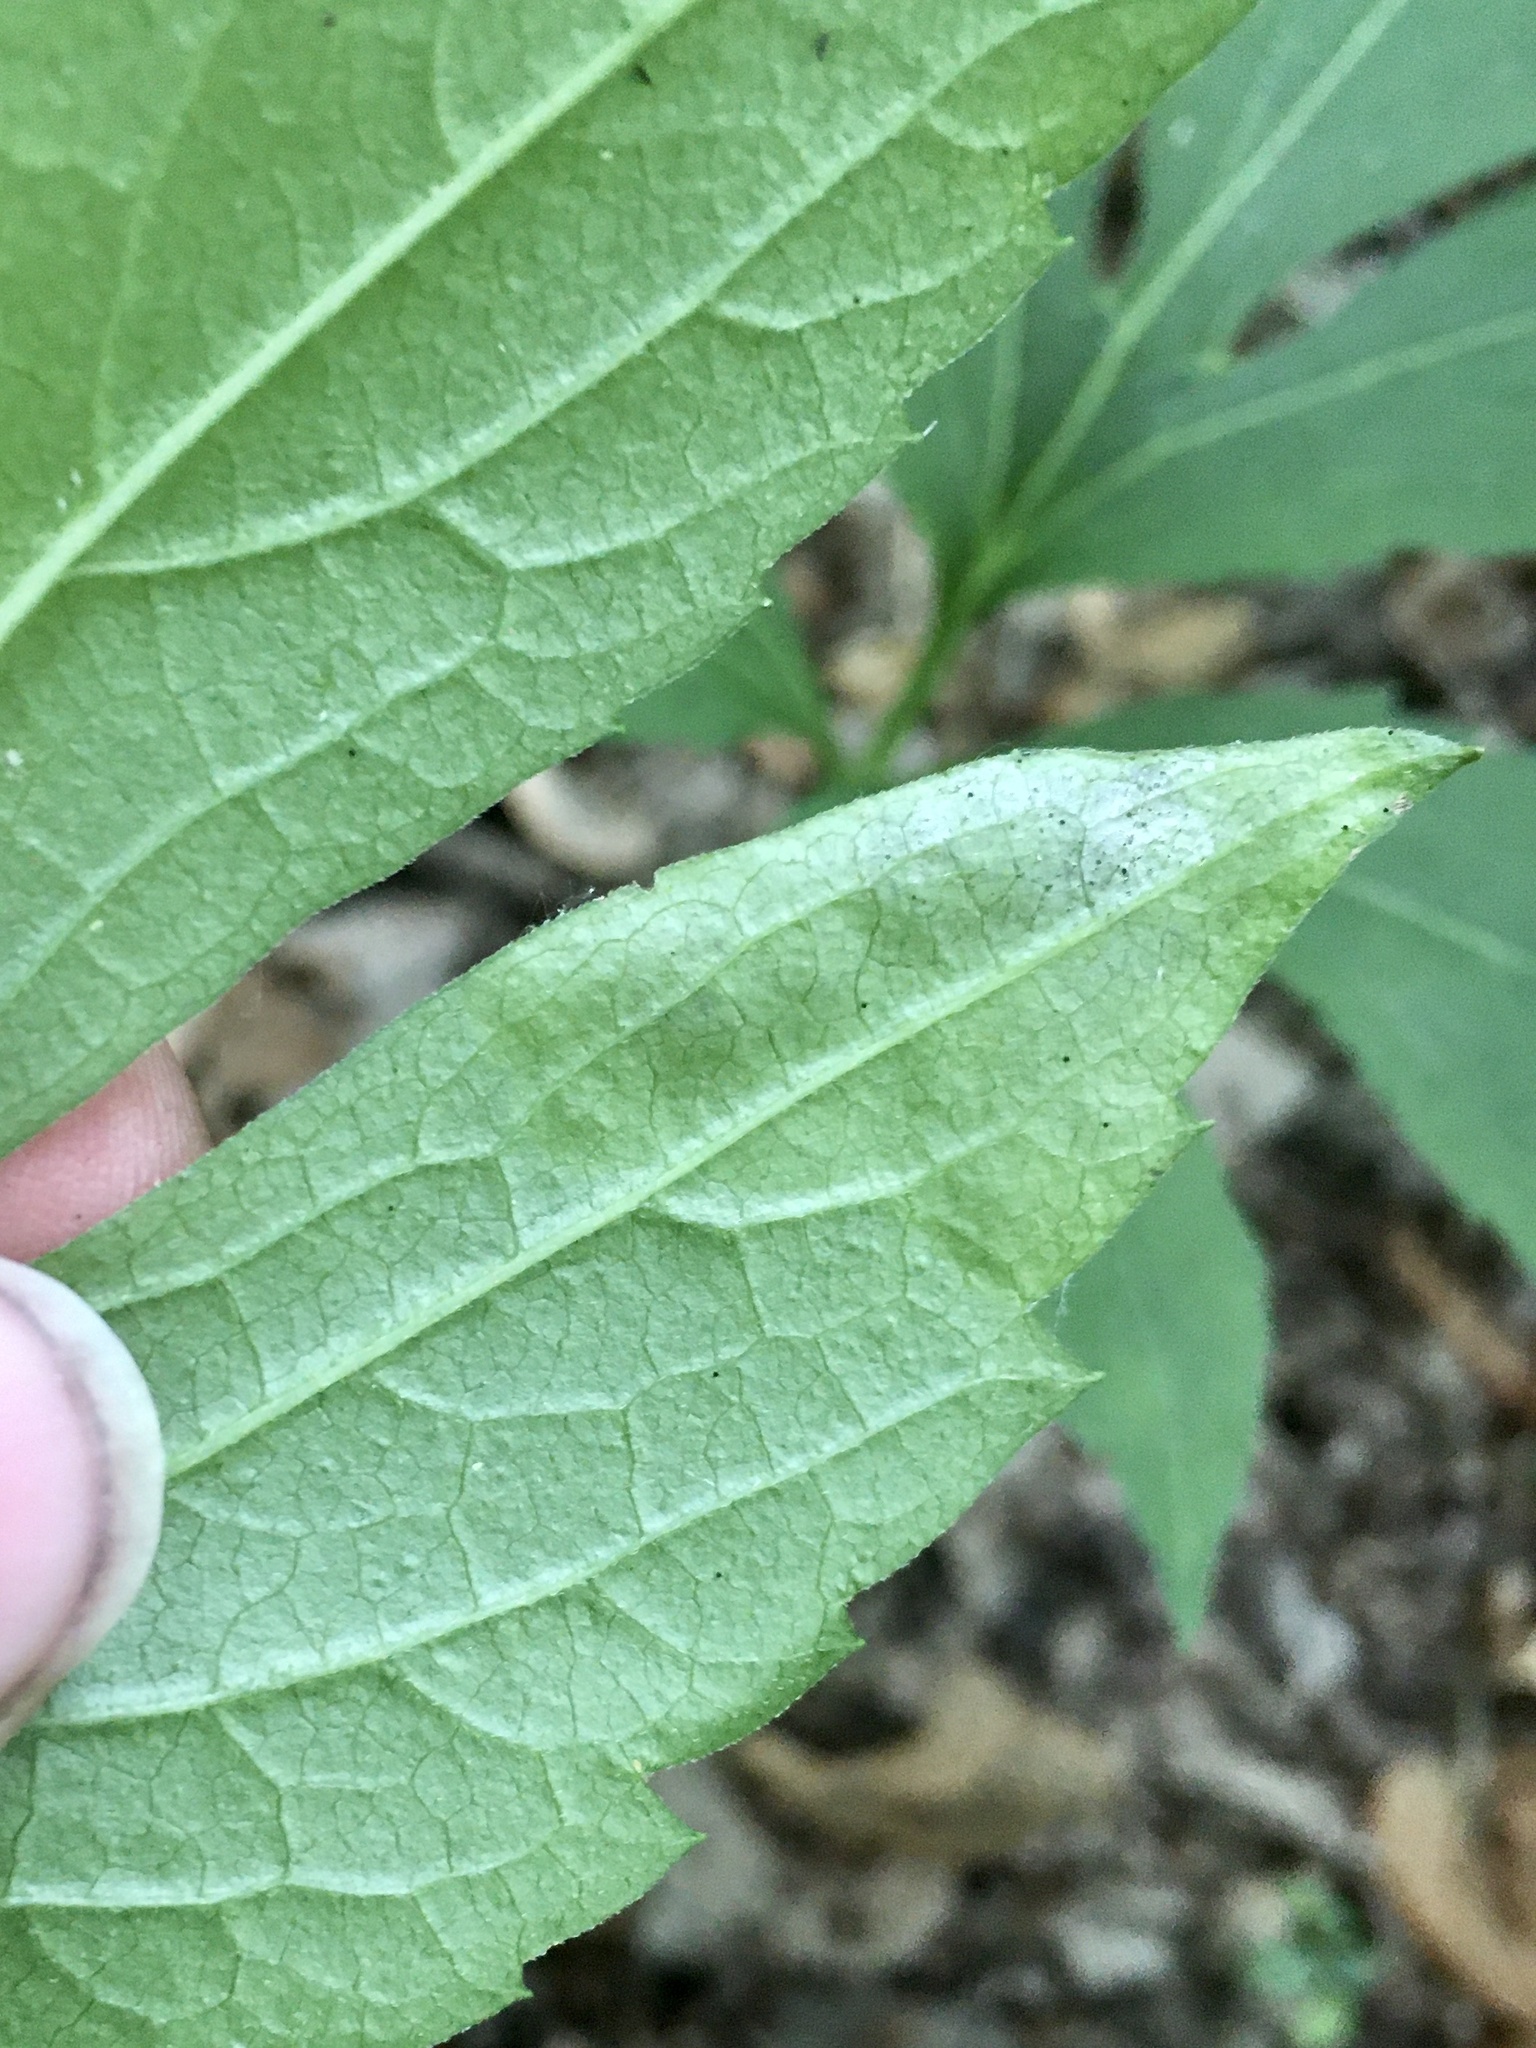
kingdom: Animalia
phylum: Arthropoda
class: Insecta
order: Diptera
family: Agromyzidae
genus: Calycomyza
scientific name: Calycomyza frickiana
